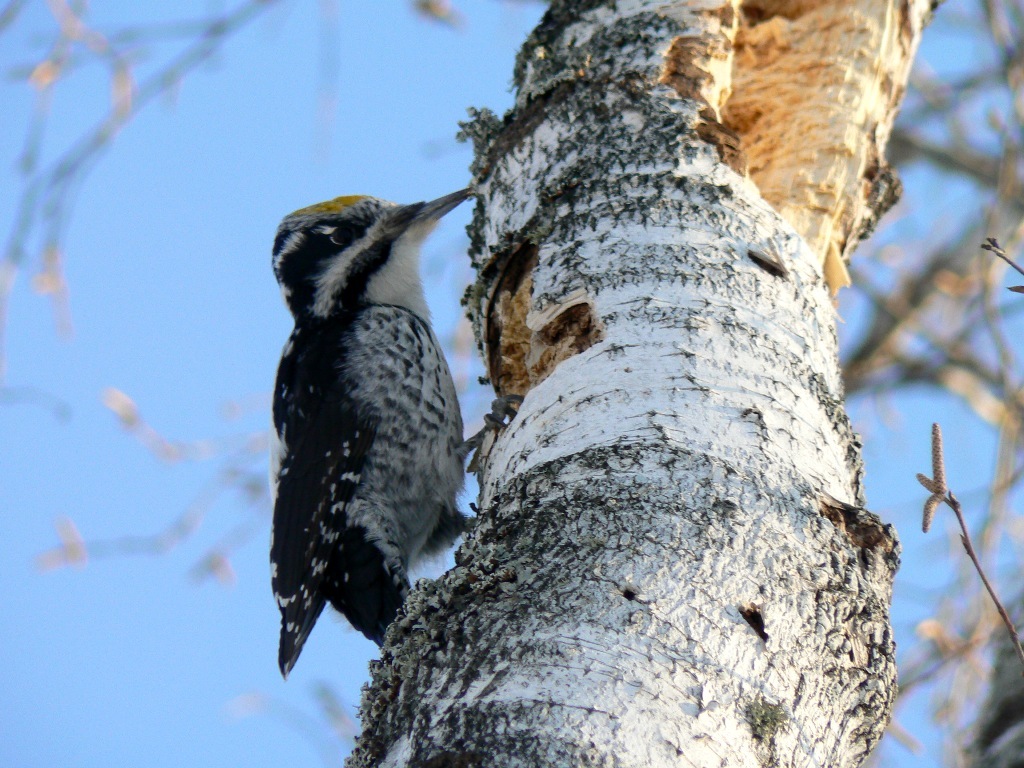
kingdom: Animalia
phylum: Chordata
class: Aves
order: Piciformes
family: Picidae
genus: Picoides
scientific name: Picoides tridactylus
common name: Eurasian three-toed woodpecker
